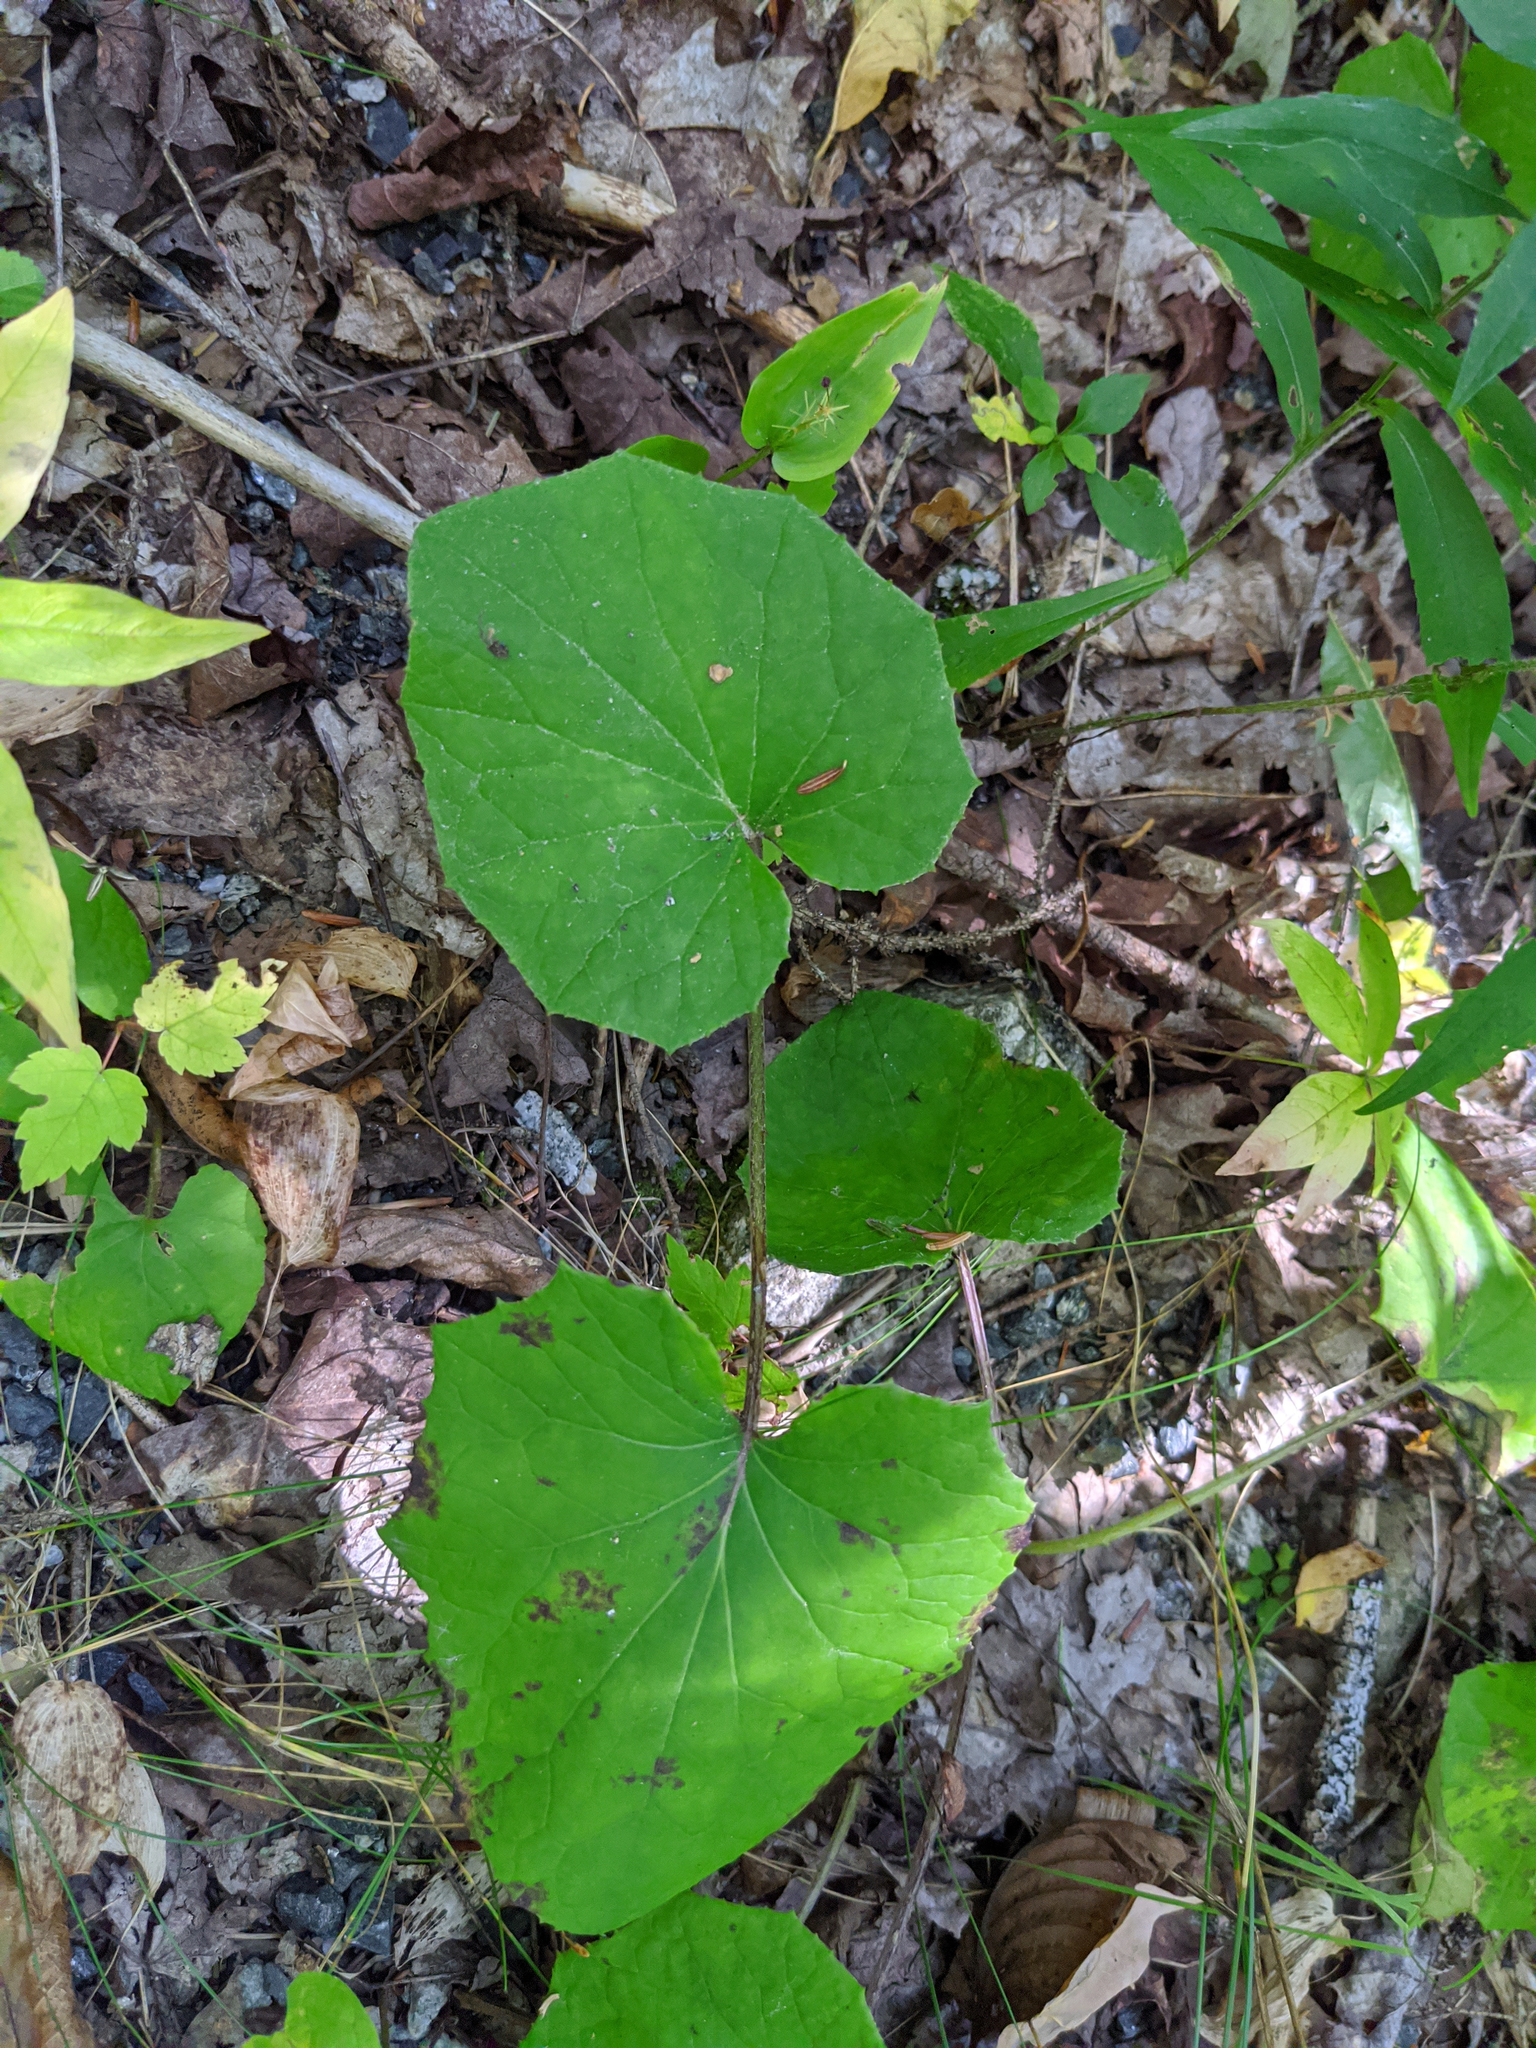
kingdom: Plantae
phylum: Tracheophyta
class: Magnoliopsida
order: Asterales
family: Asteraceae
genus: Tussilago
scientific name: Tussilago farfara
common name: Coltsfoot
